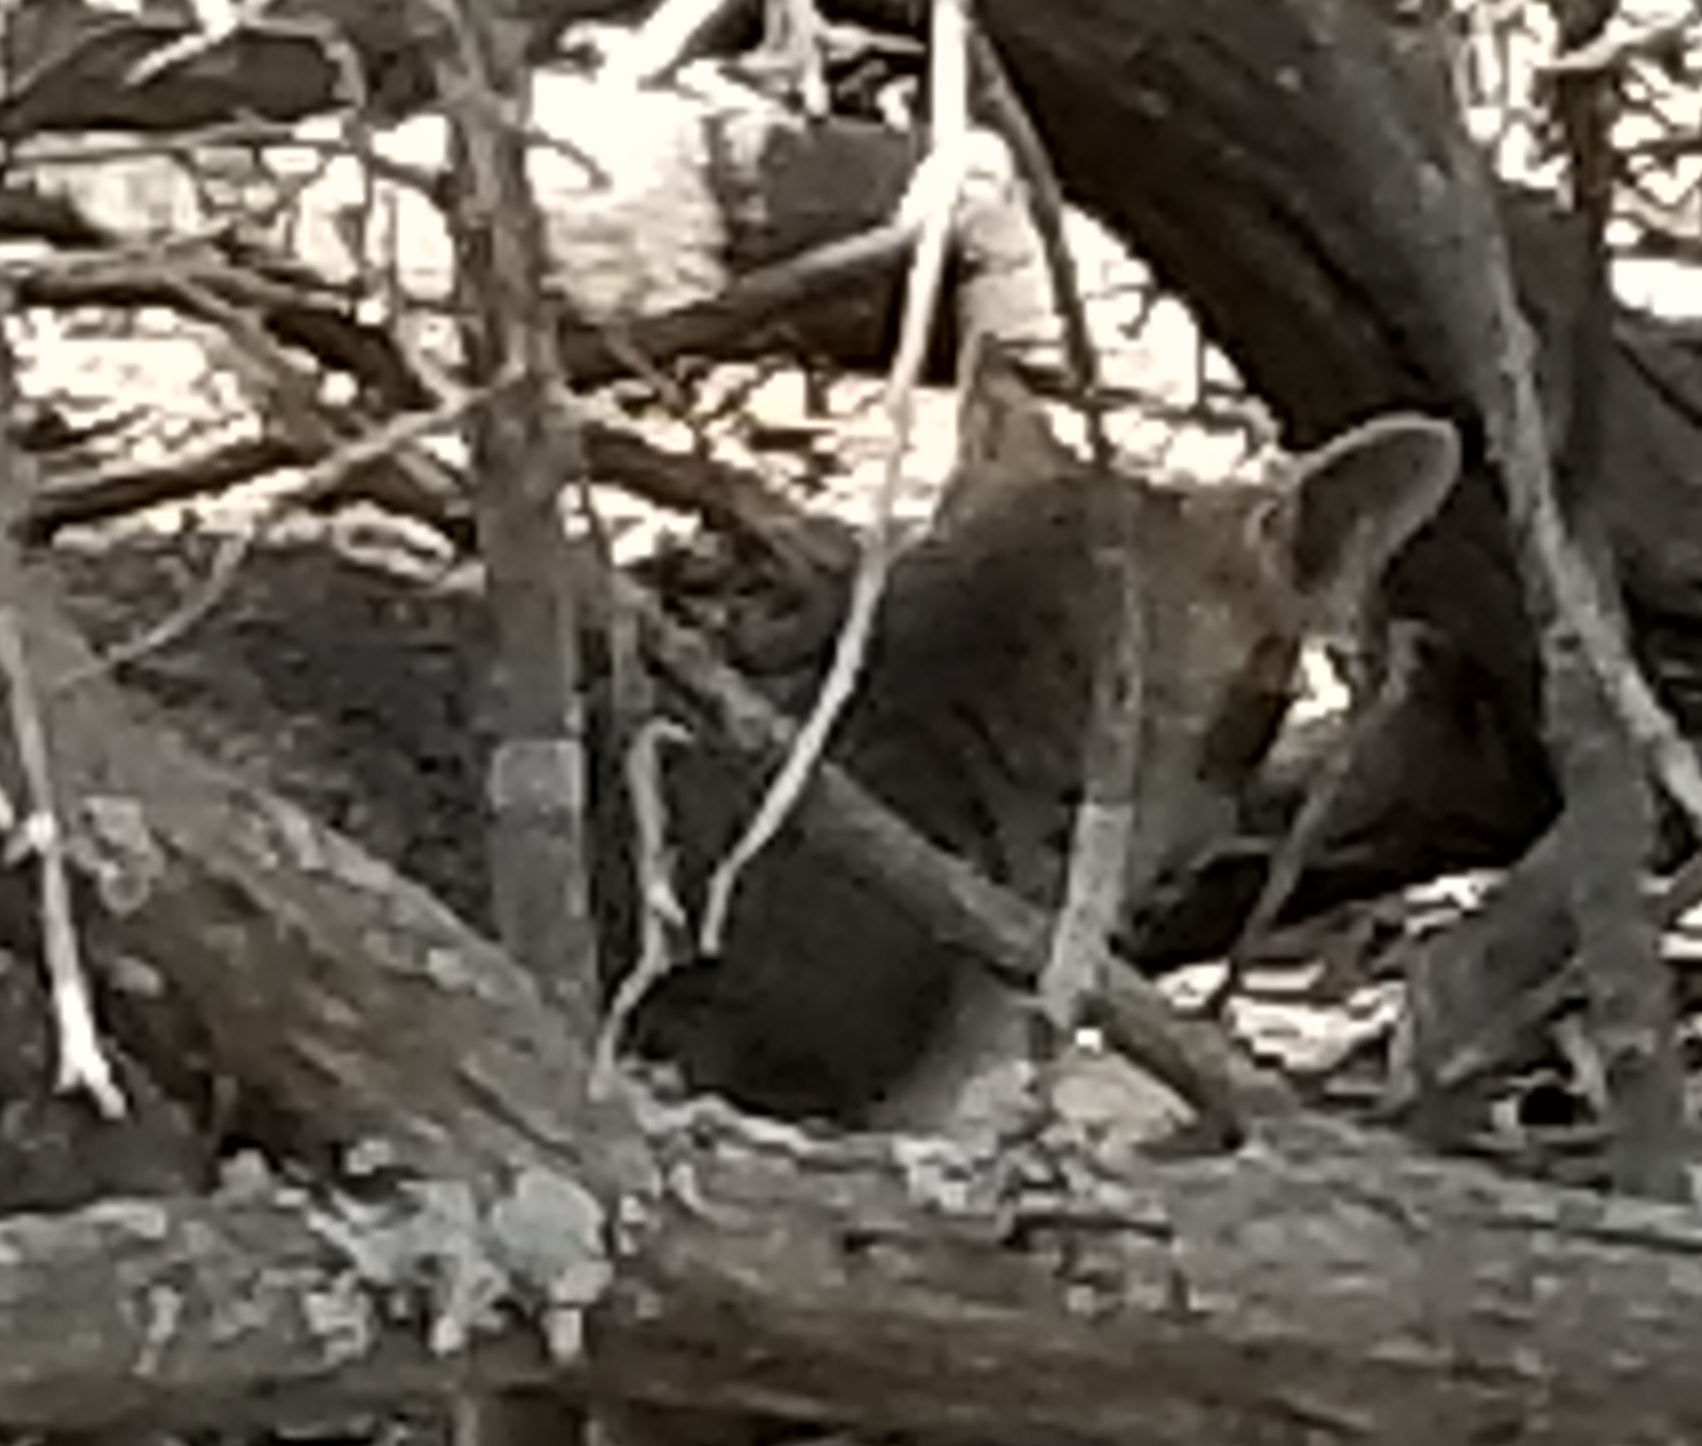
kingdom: Animalia
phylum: Chordata
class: Mammalia
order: Carnivora
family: Canidae
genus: Urocyon
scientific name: Urocyon cinereoargenteus
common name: Gray fox
